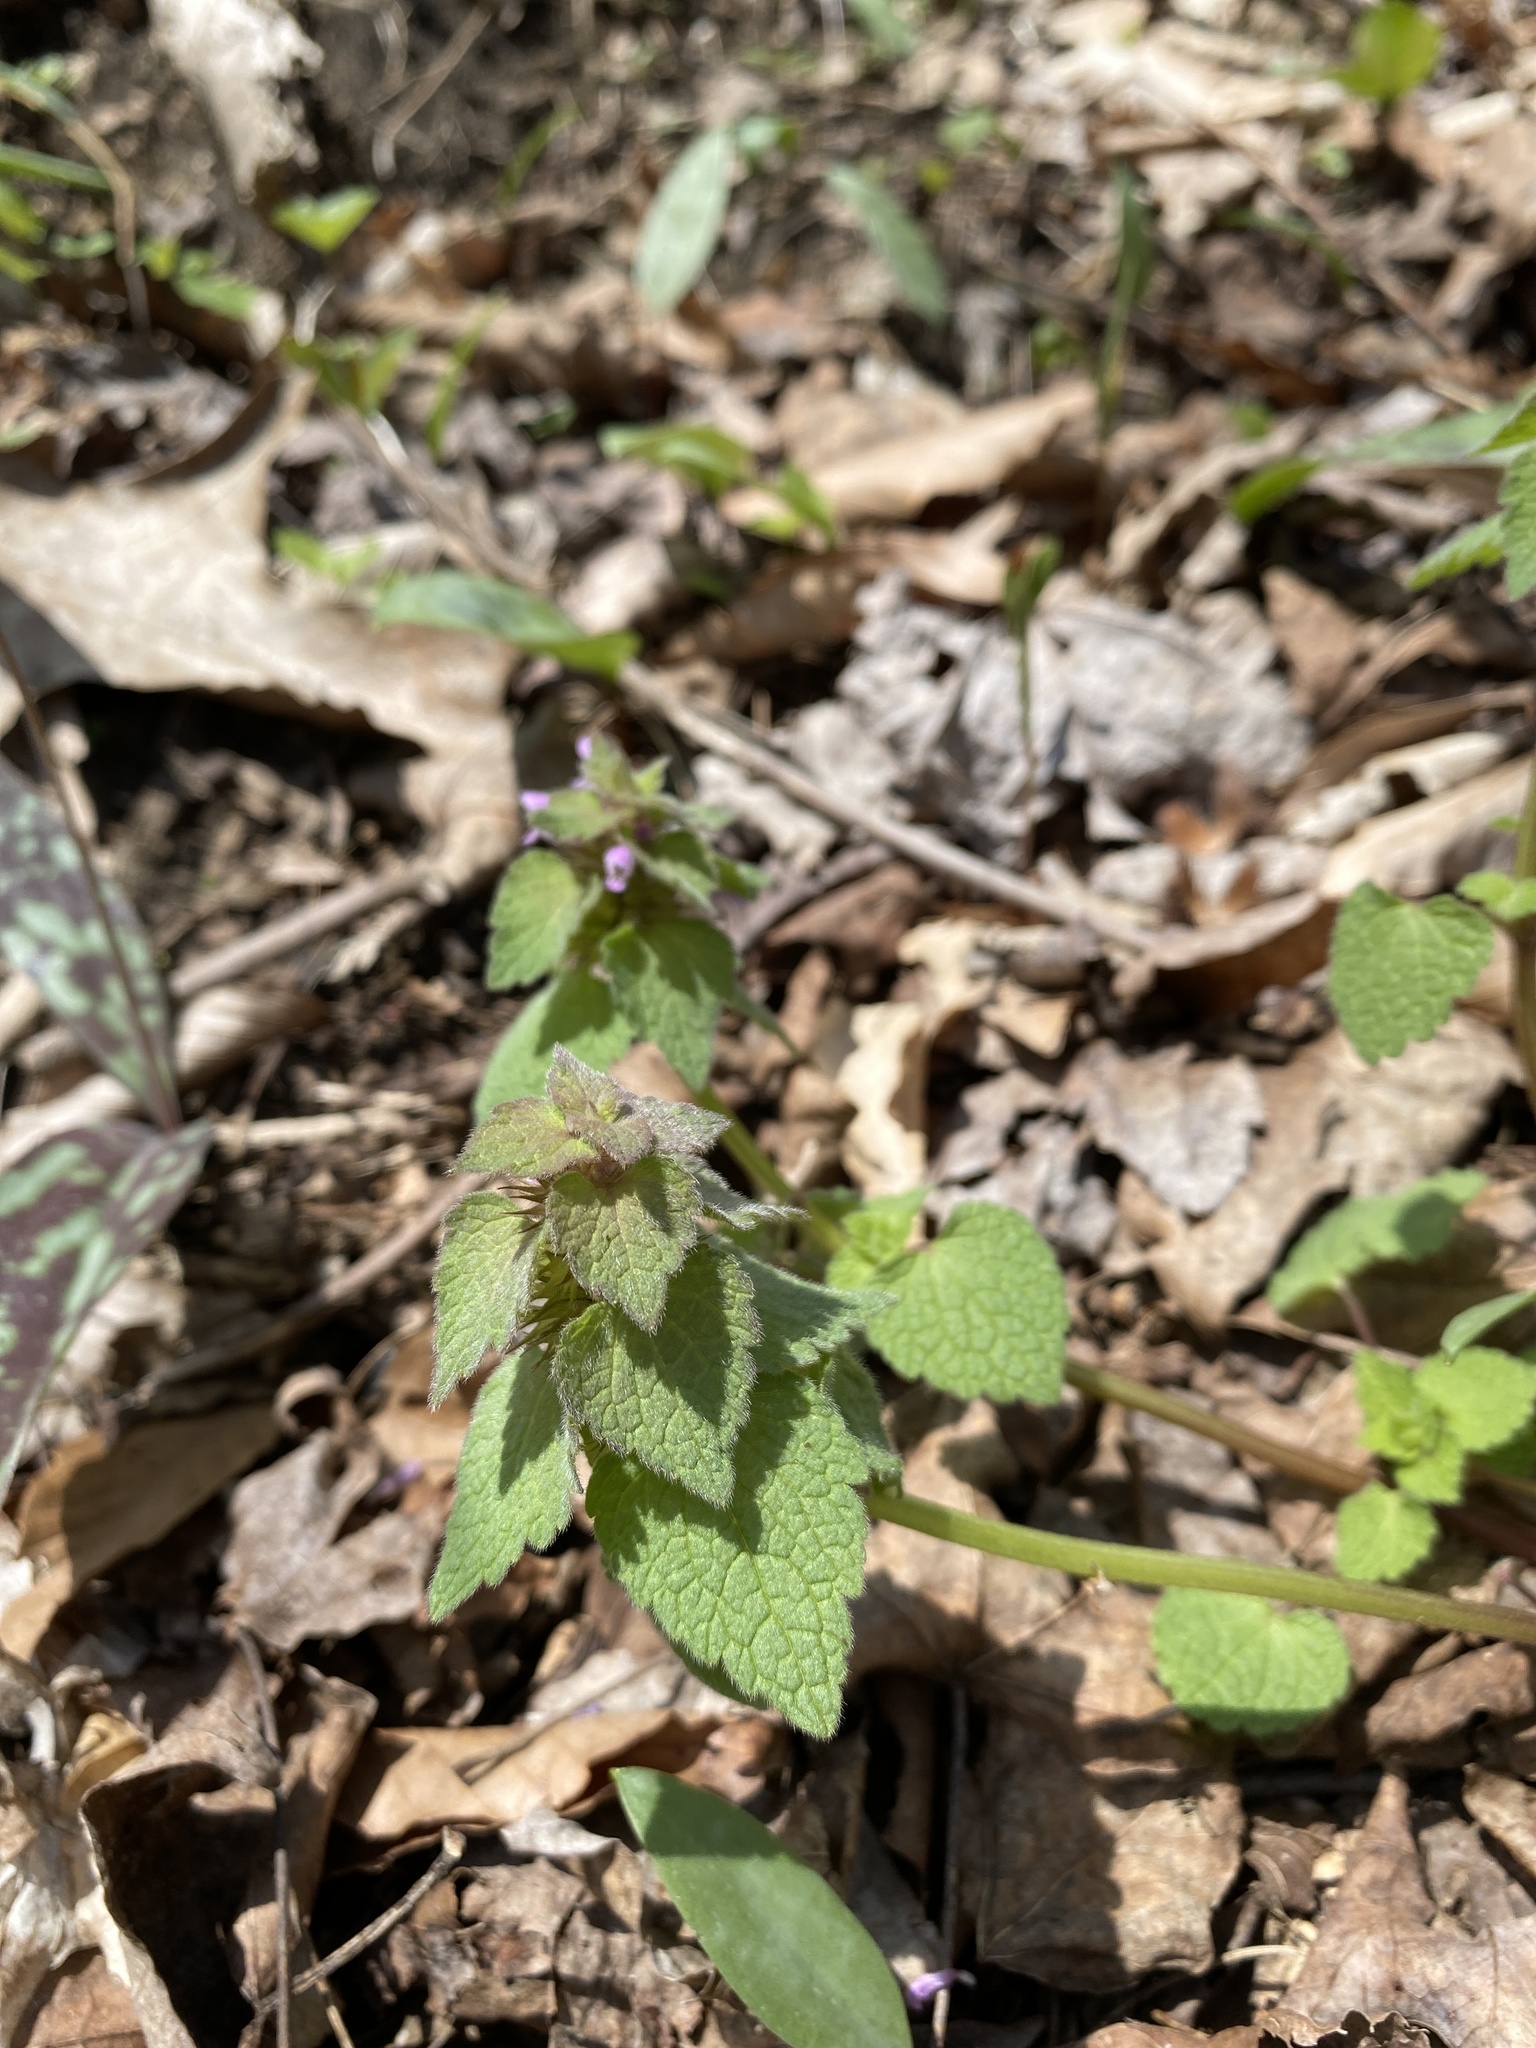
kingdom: Plantae
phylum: Tracheophyta
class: Magnoliopsida
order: Lamiales
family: Lamiaceae
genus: Lamium
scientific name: Lamium purpureum
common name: Red dead-nettle
